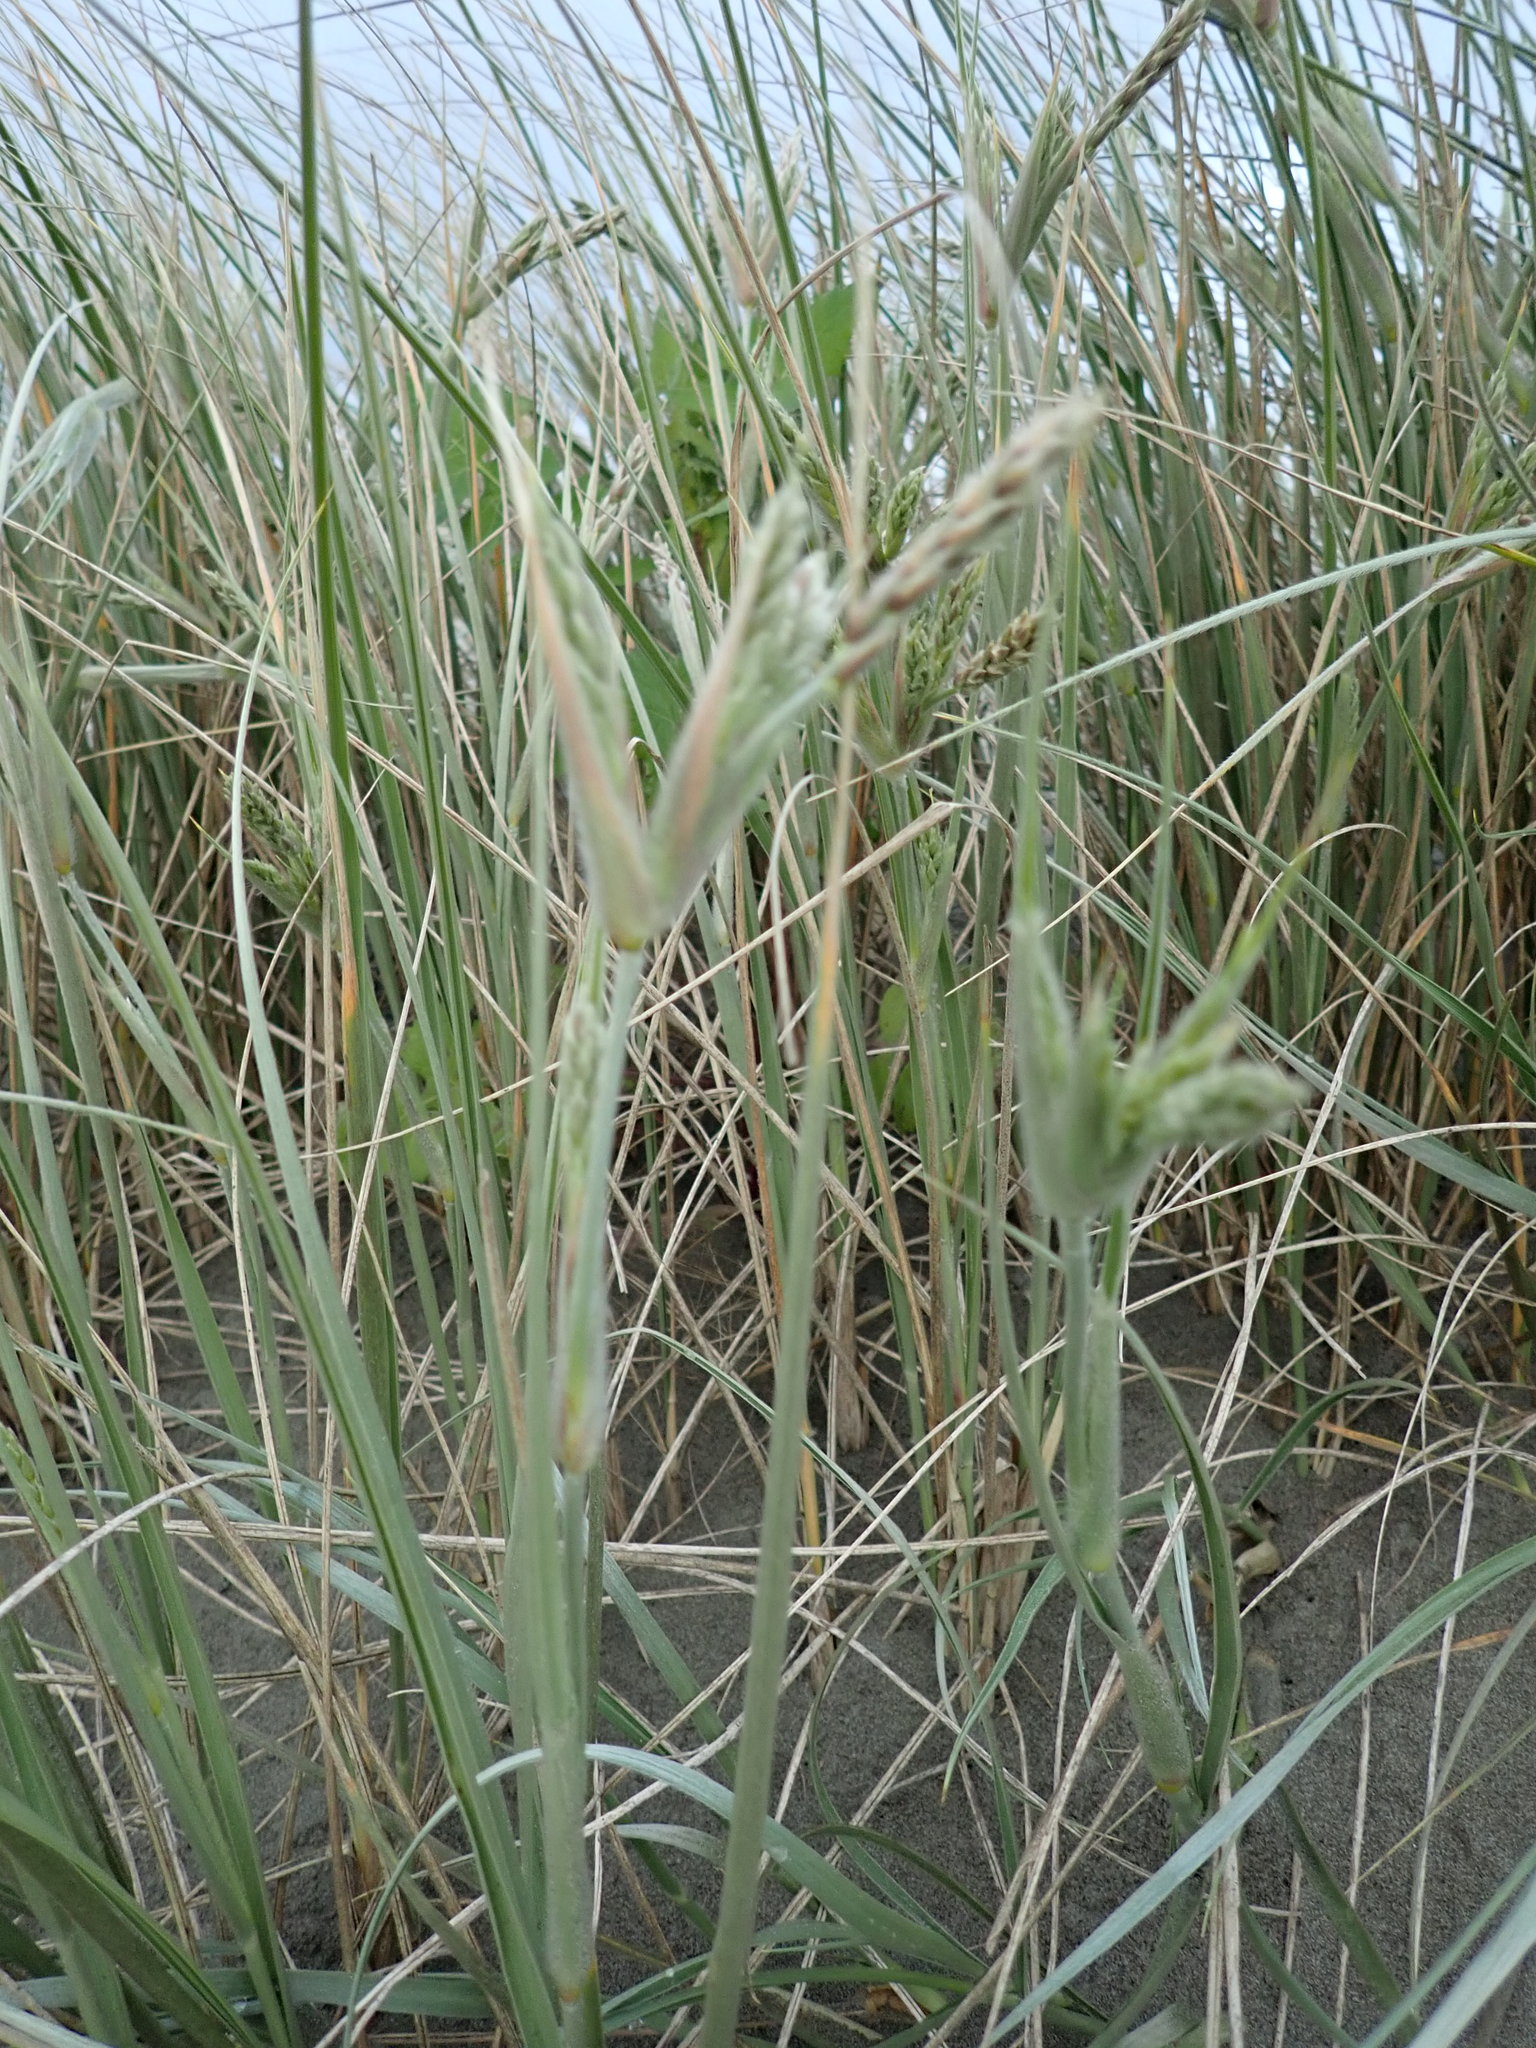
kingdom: Plantae
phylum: Tracheophyta
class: Liliopsida
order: Poales
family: Poaceae
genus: Spinifex
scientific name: Spinifex sericeus
